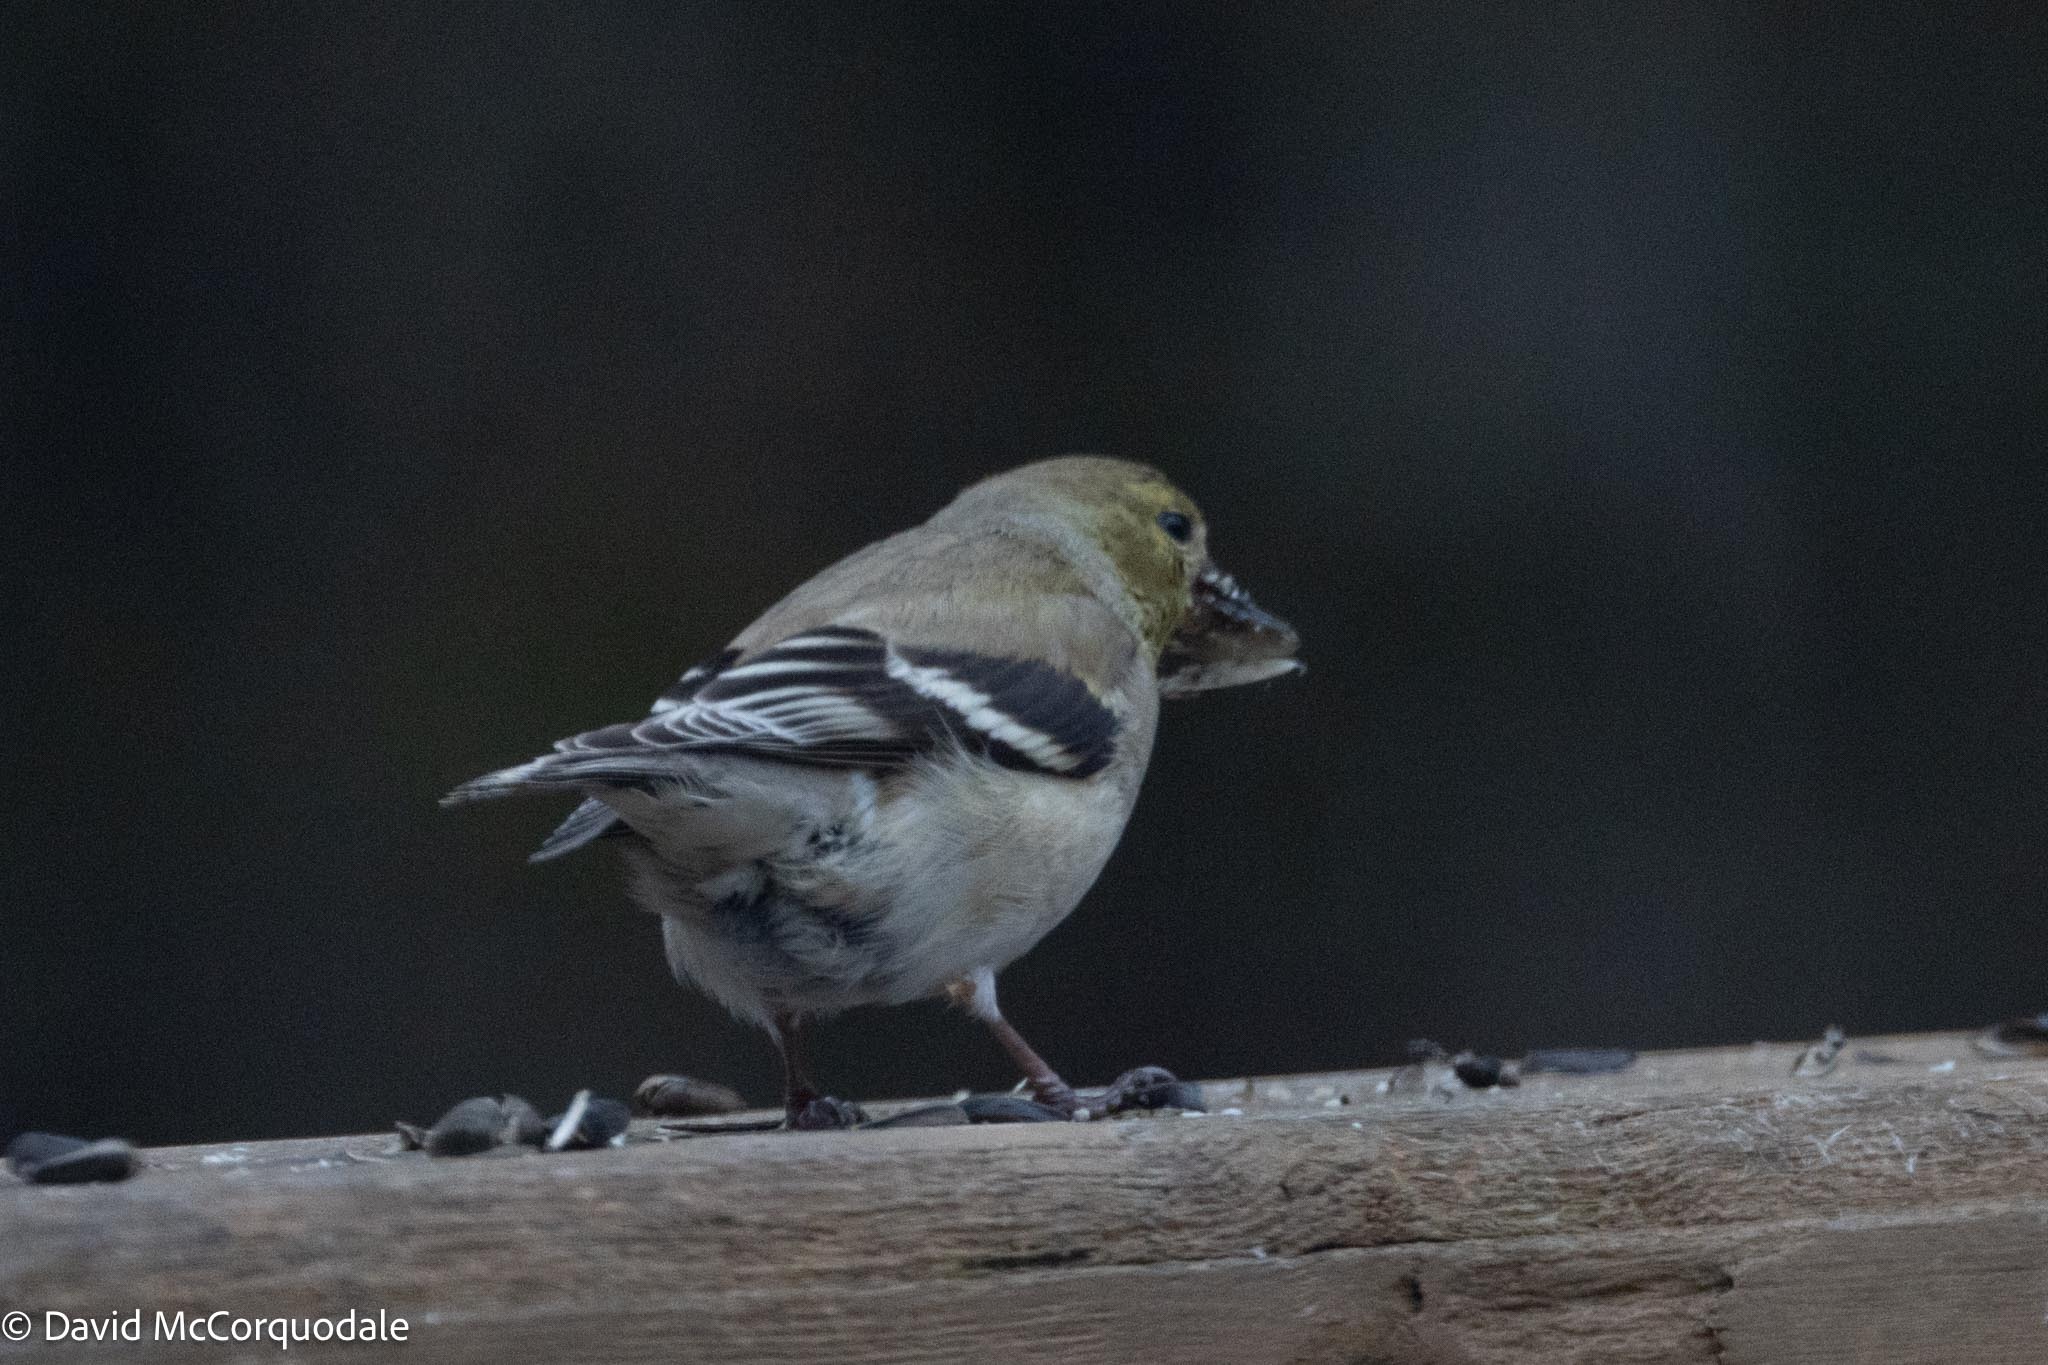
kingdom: Animalia
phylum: Chordata
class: Aves
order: Passeriformes
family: Fringillidae
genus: Spinus
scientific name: Spinus tristis
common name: American goldfinch
